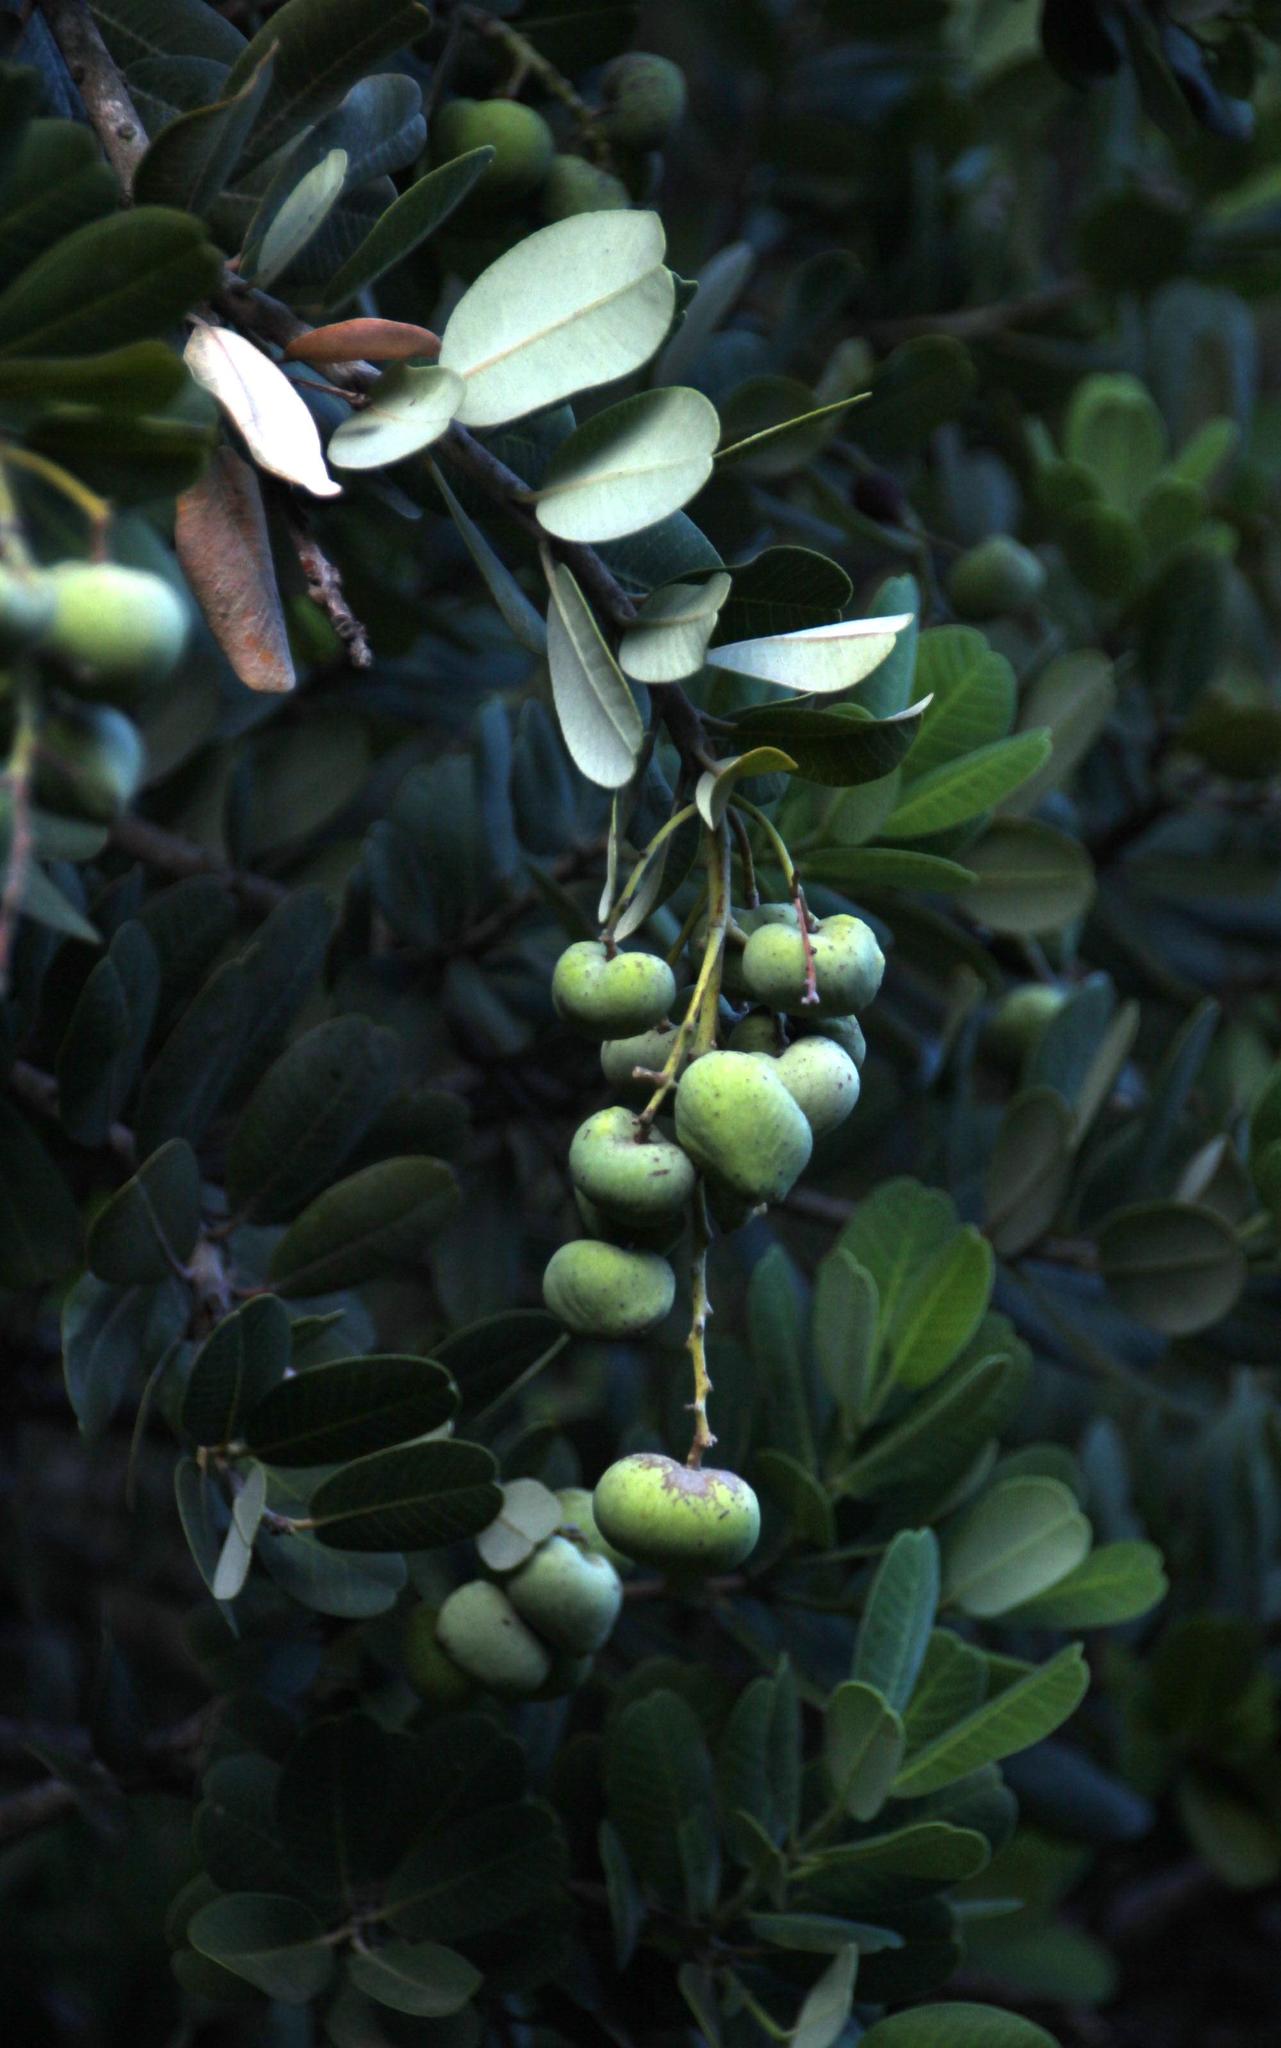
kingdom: Plantae
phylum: Tracheophyta
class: Magnoliopsida
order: Sapindales
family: Anacardiaceae
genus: Heeria
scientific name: Heeria argentea
